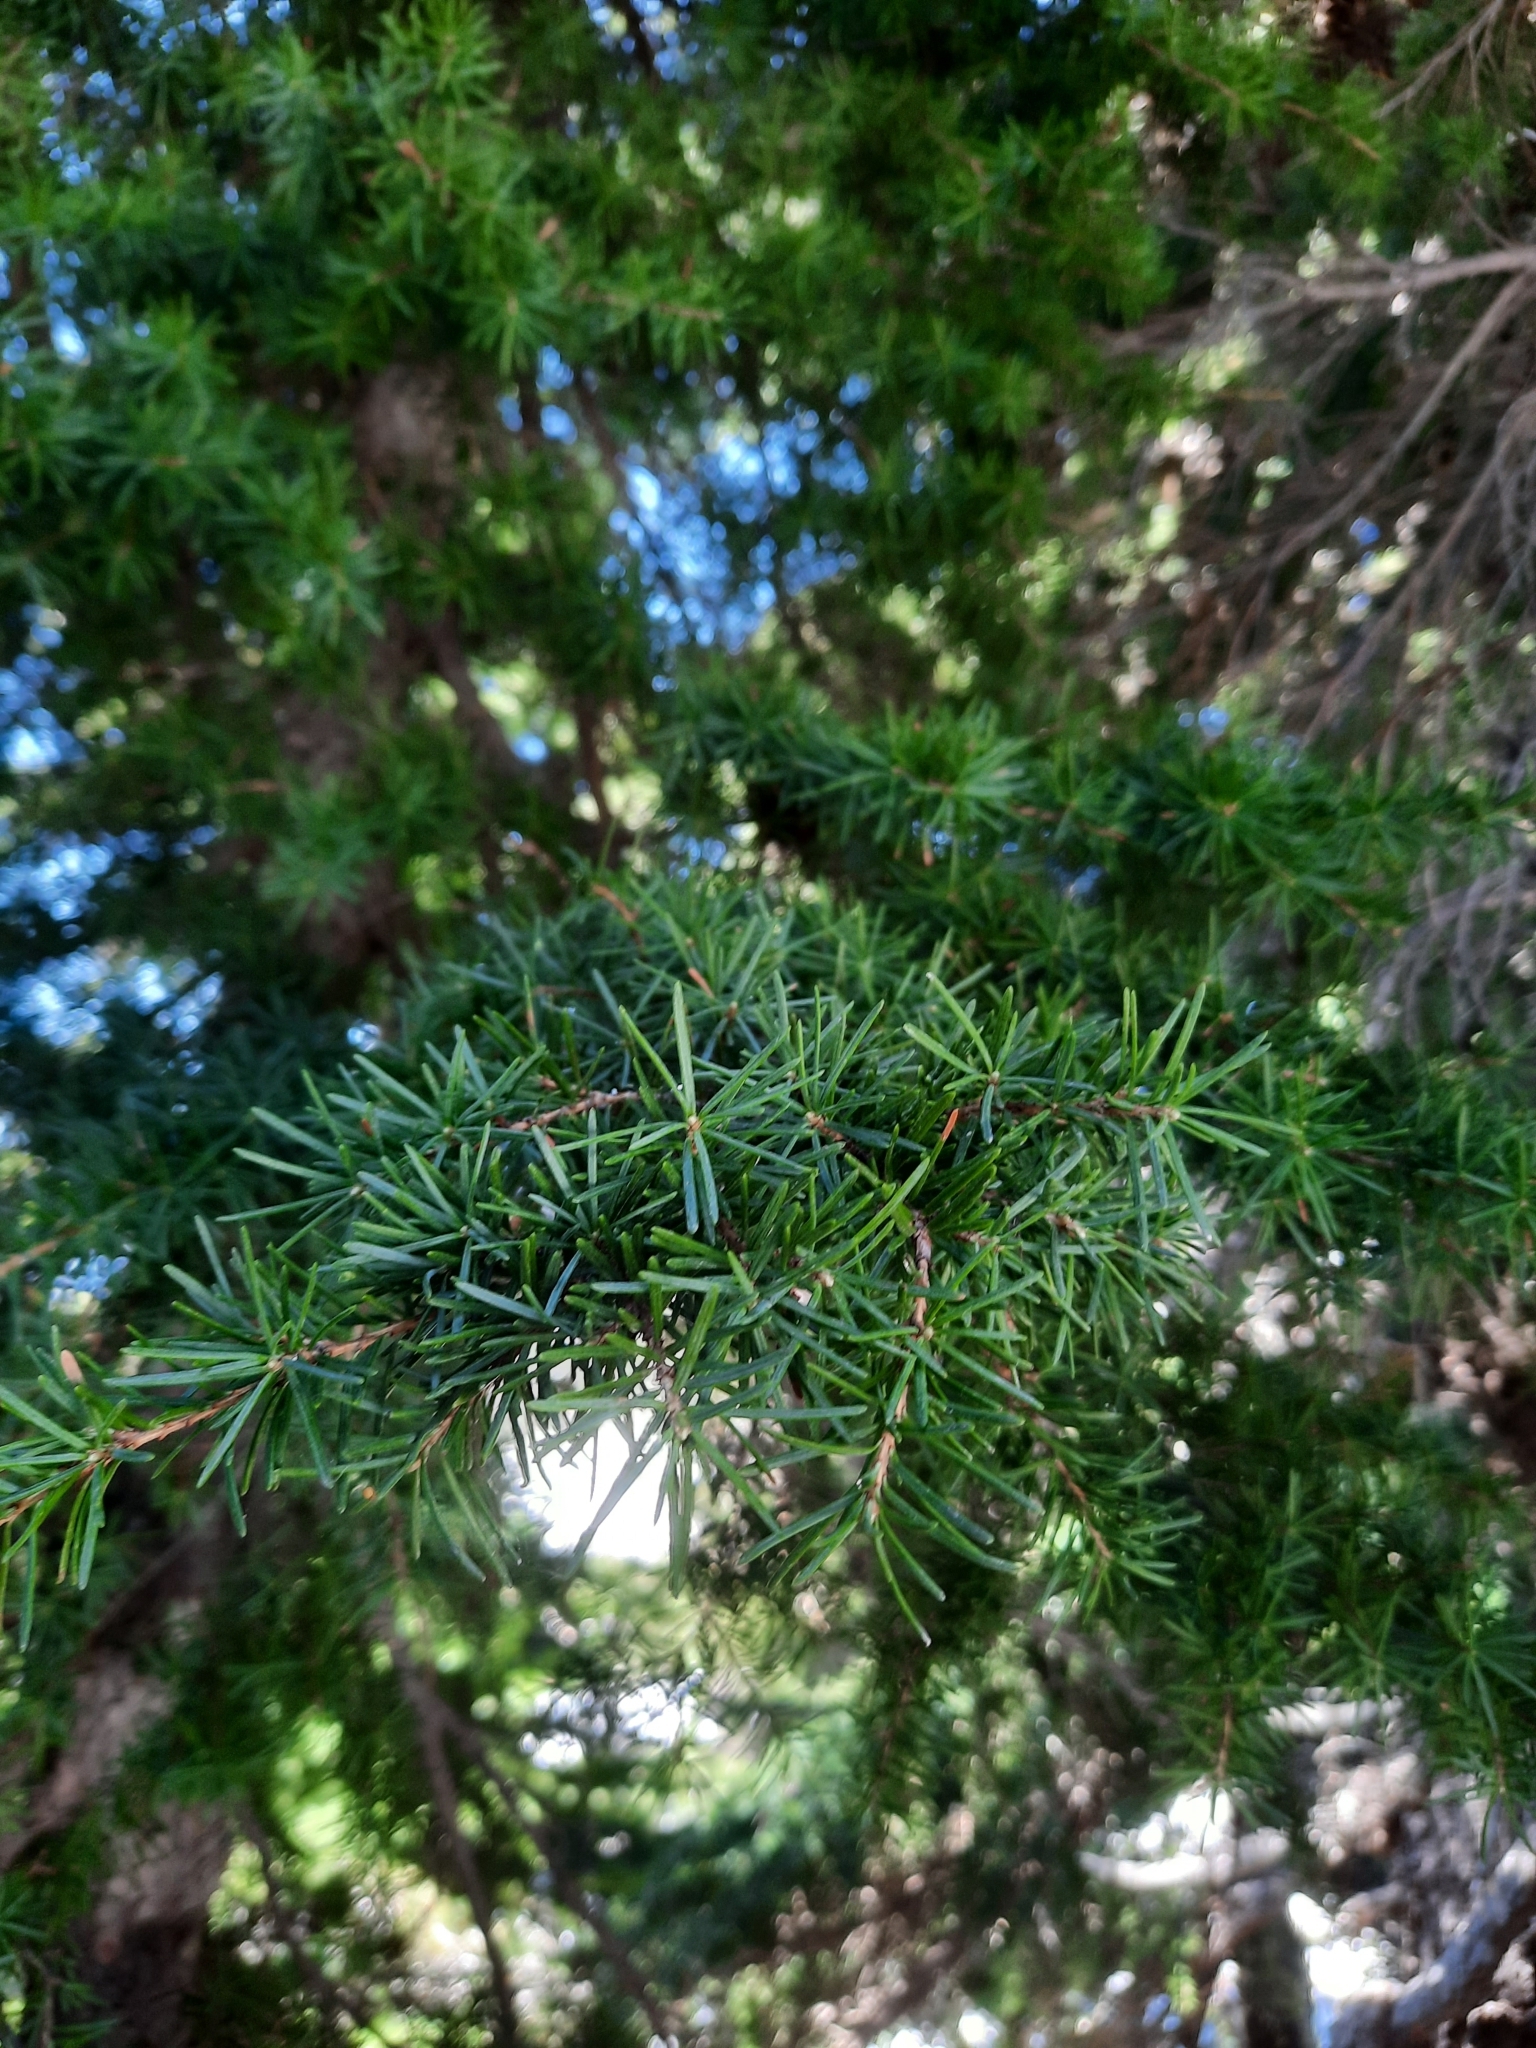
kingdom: Plantae
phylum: Tracheophyta
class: Pinopsida
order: Pinales
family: Pinaceae
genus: Tsuga
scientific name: Tsuga mertensiana
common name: Mountain hemlock
